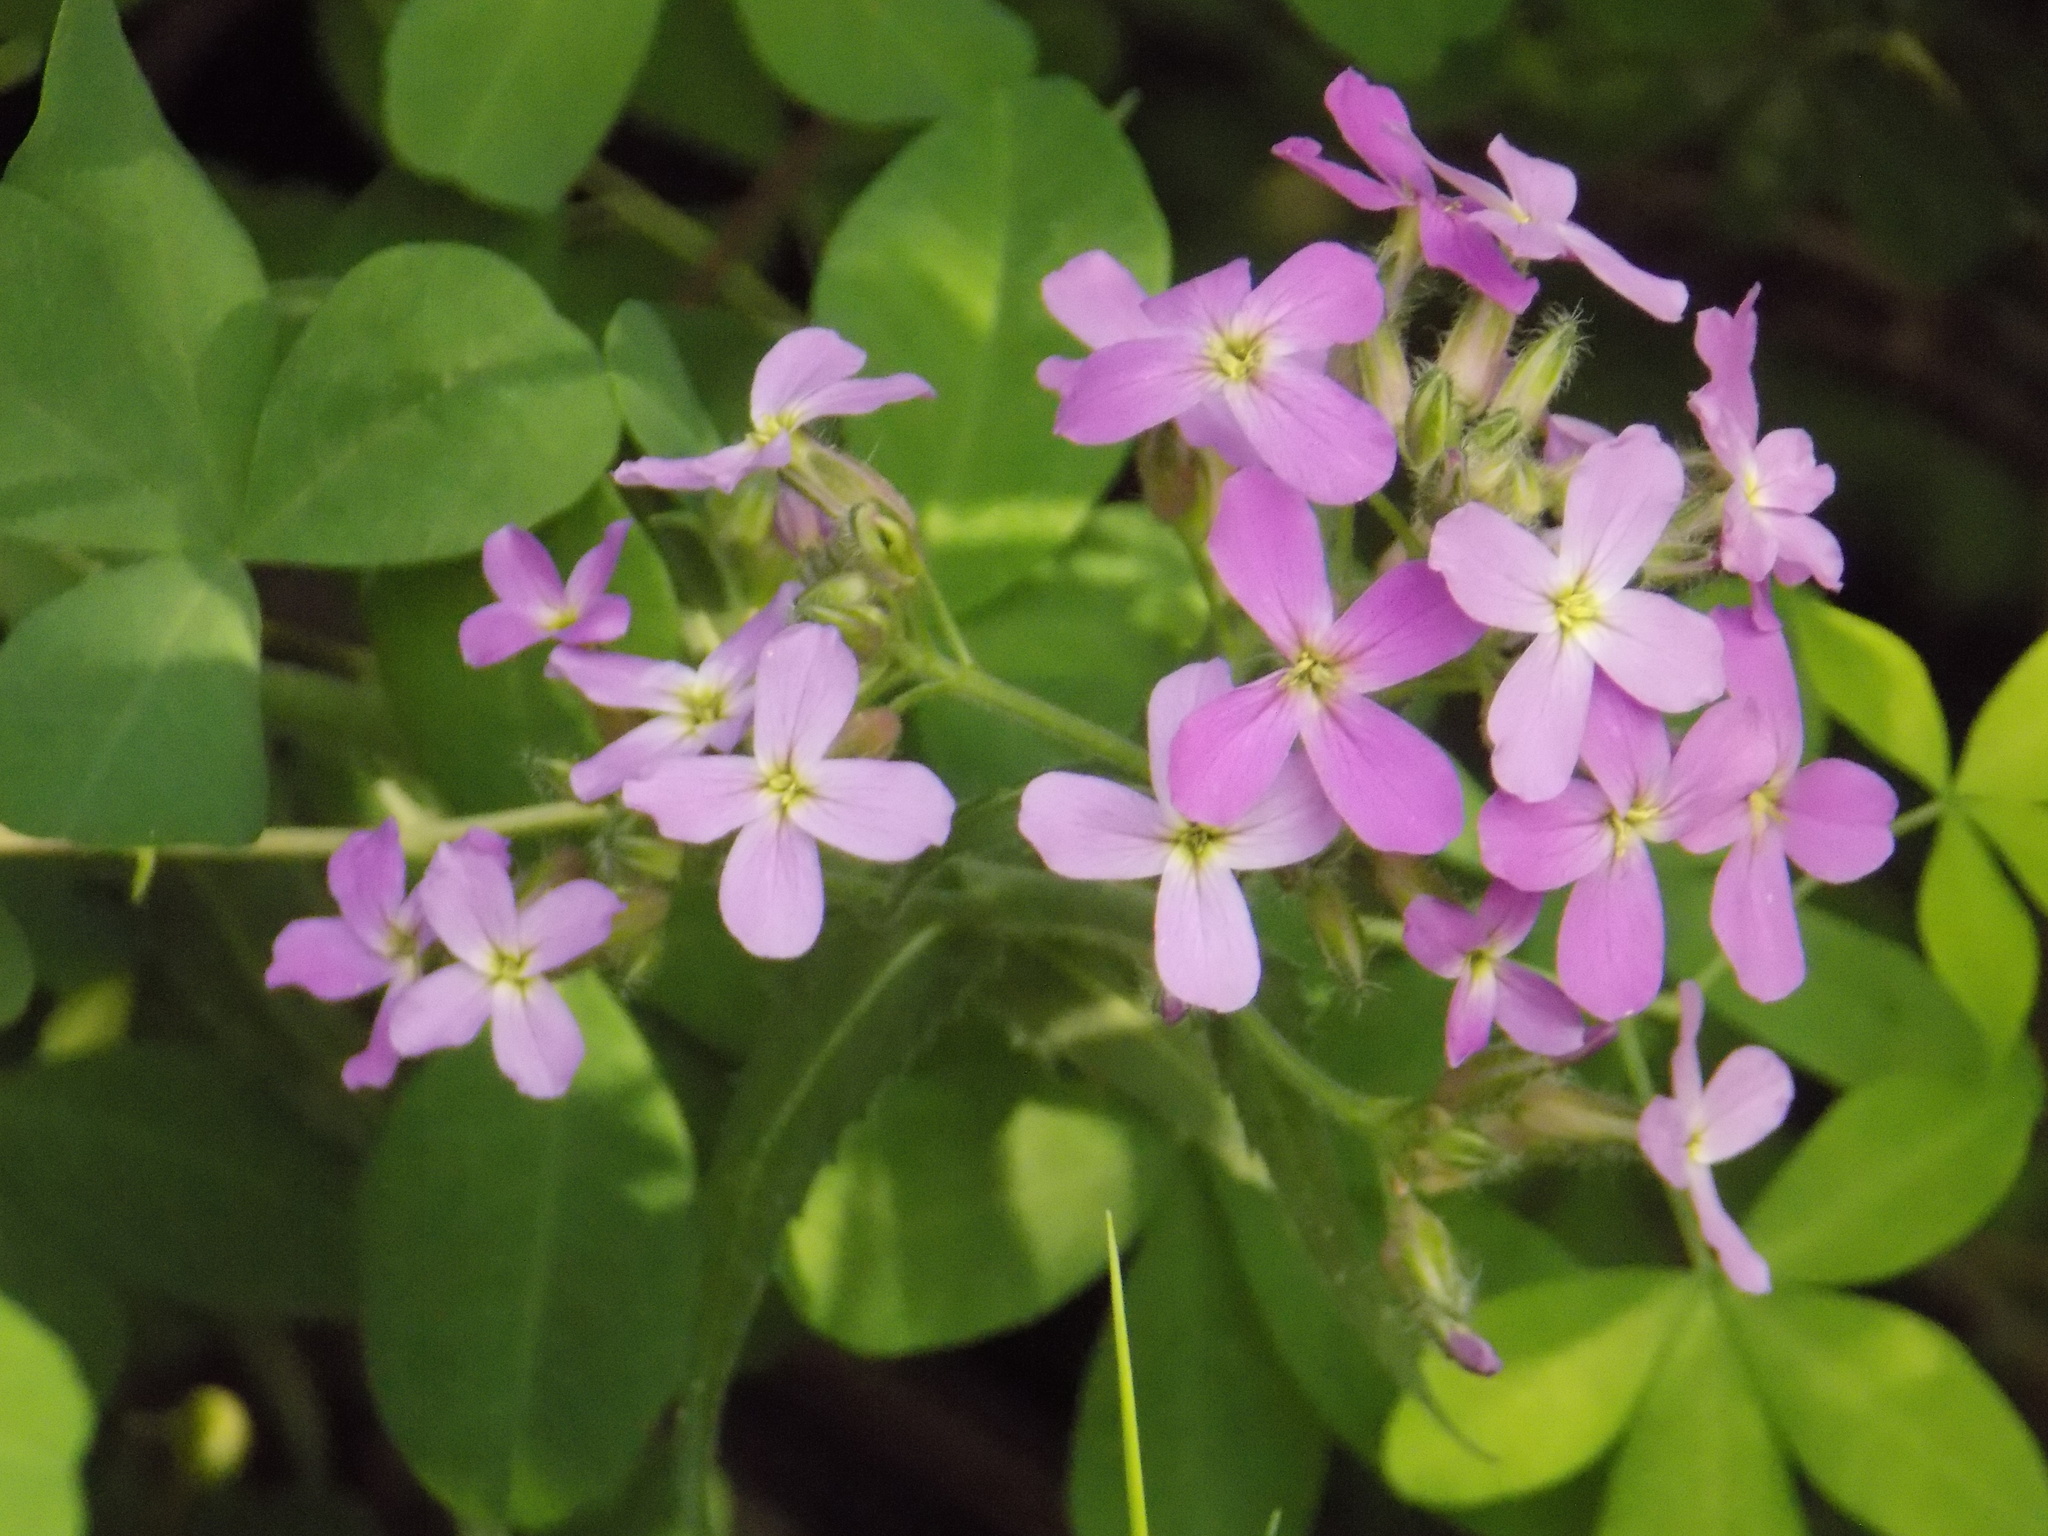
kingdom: Plantae
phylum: Tracheophyta
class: Magnoliopsida
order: Brassicales
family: Brassicaceae
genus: Hesperis
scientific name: Hesperis sibirica
